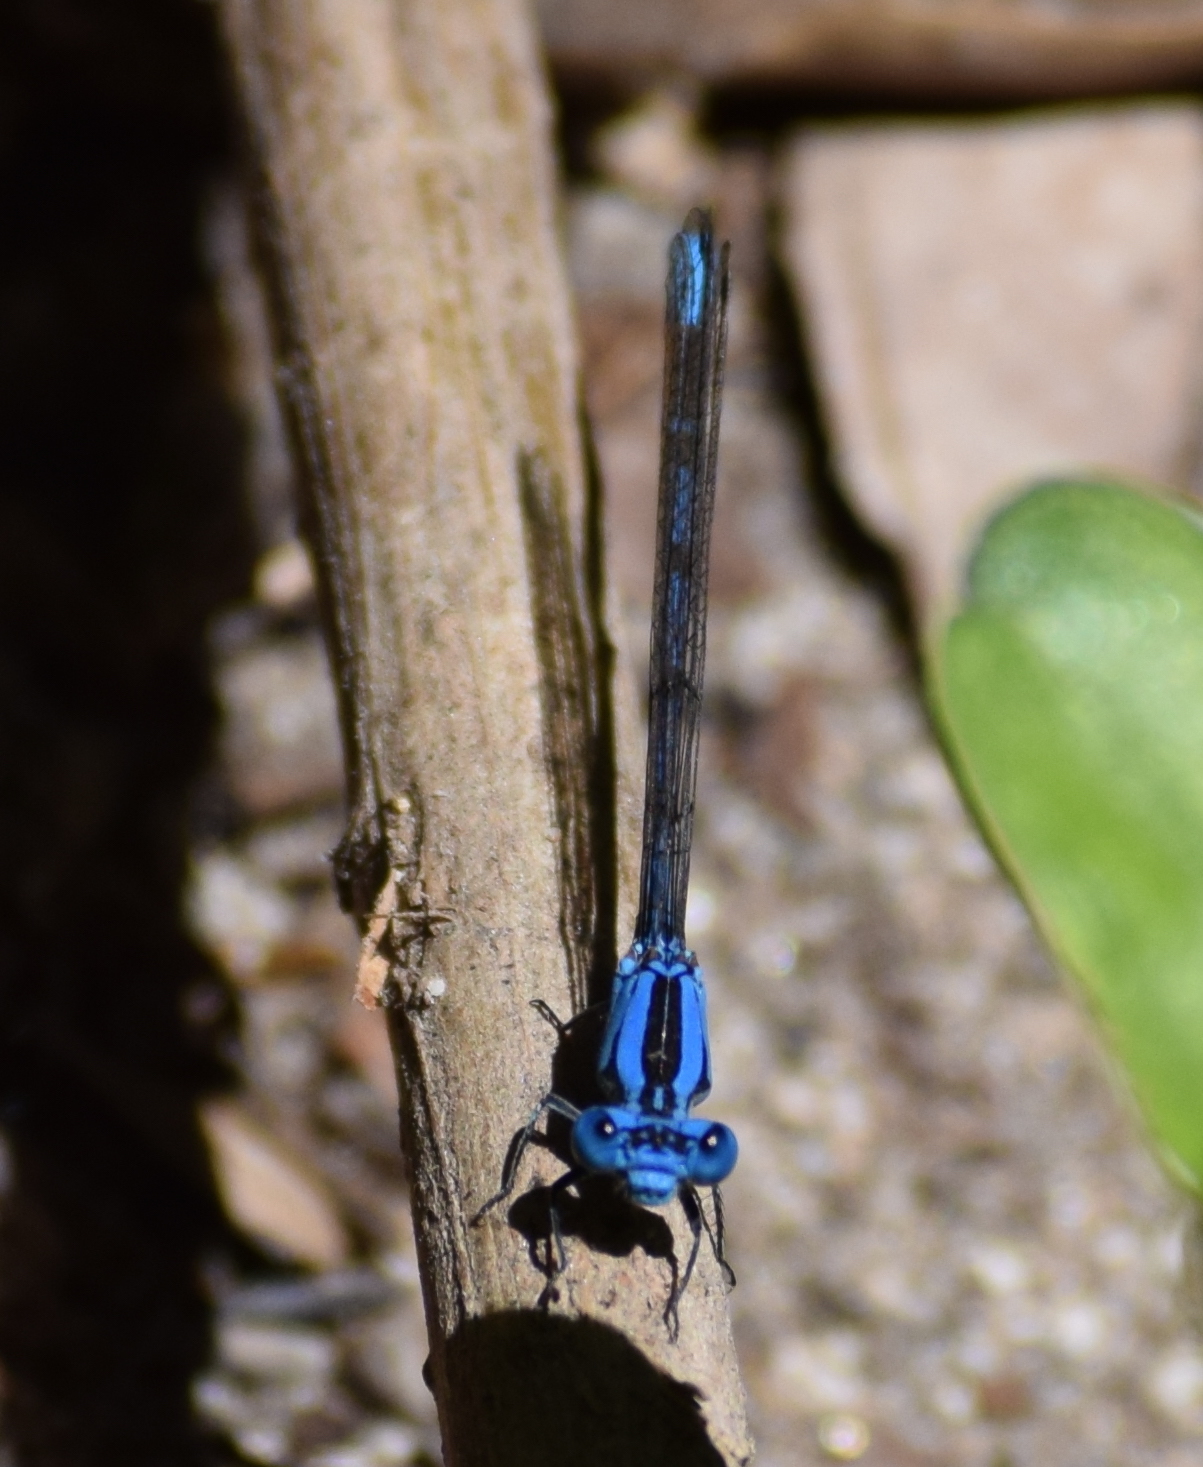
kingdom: Animalia
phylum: Arthropoda
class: Insecta
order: Odonata
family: Coenagrionidae
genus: Argia
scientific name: Argia vivida
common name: Vivid dancer
